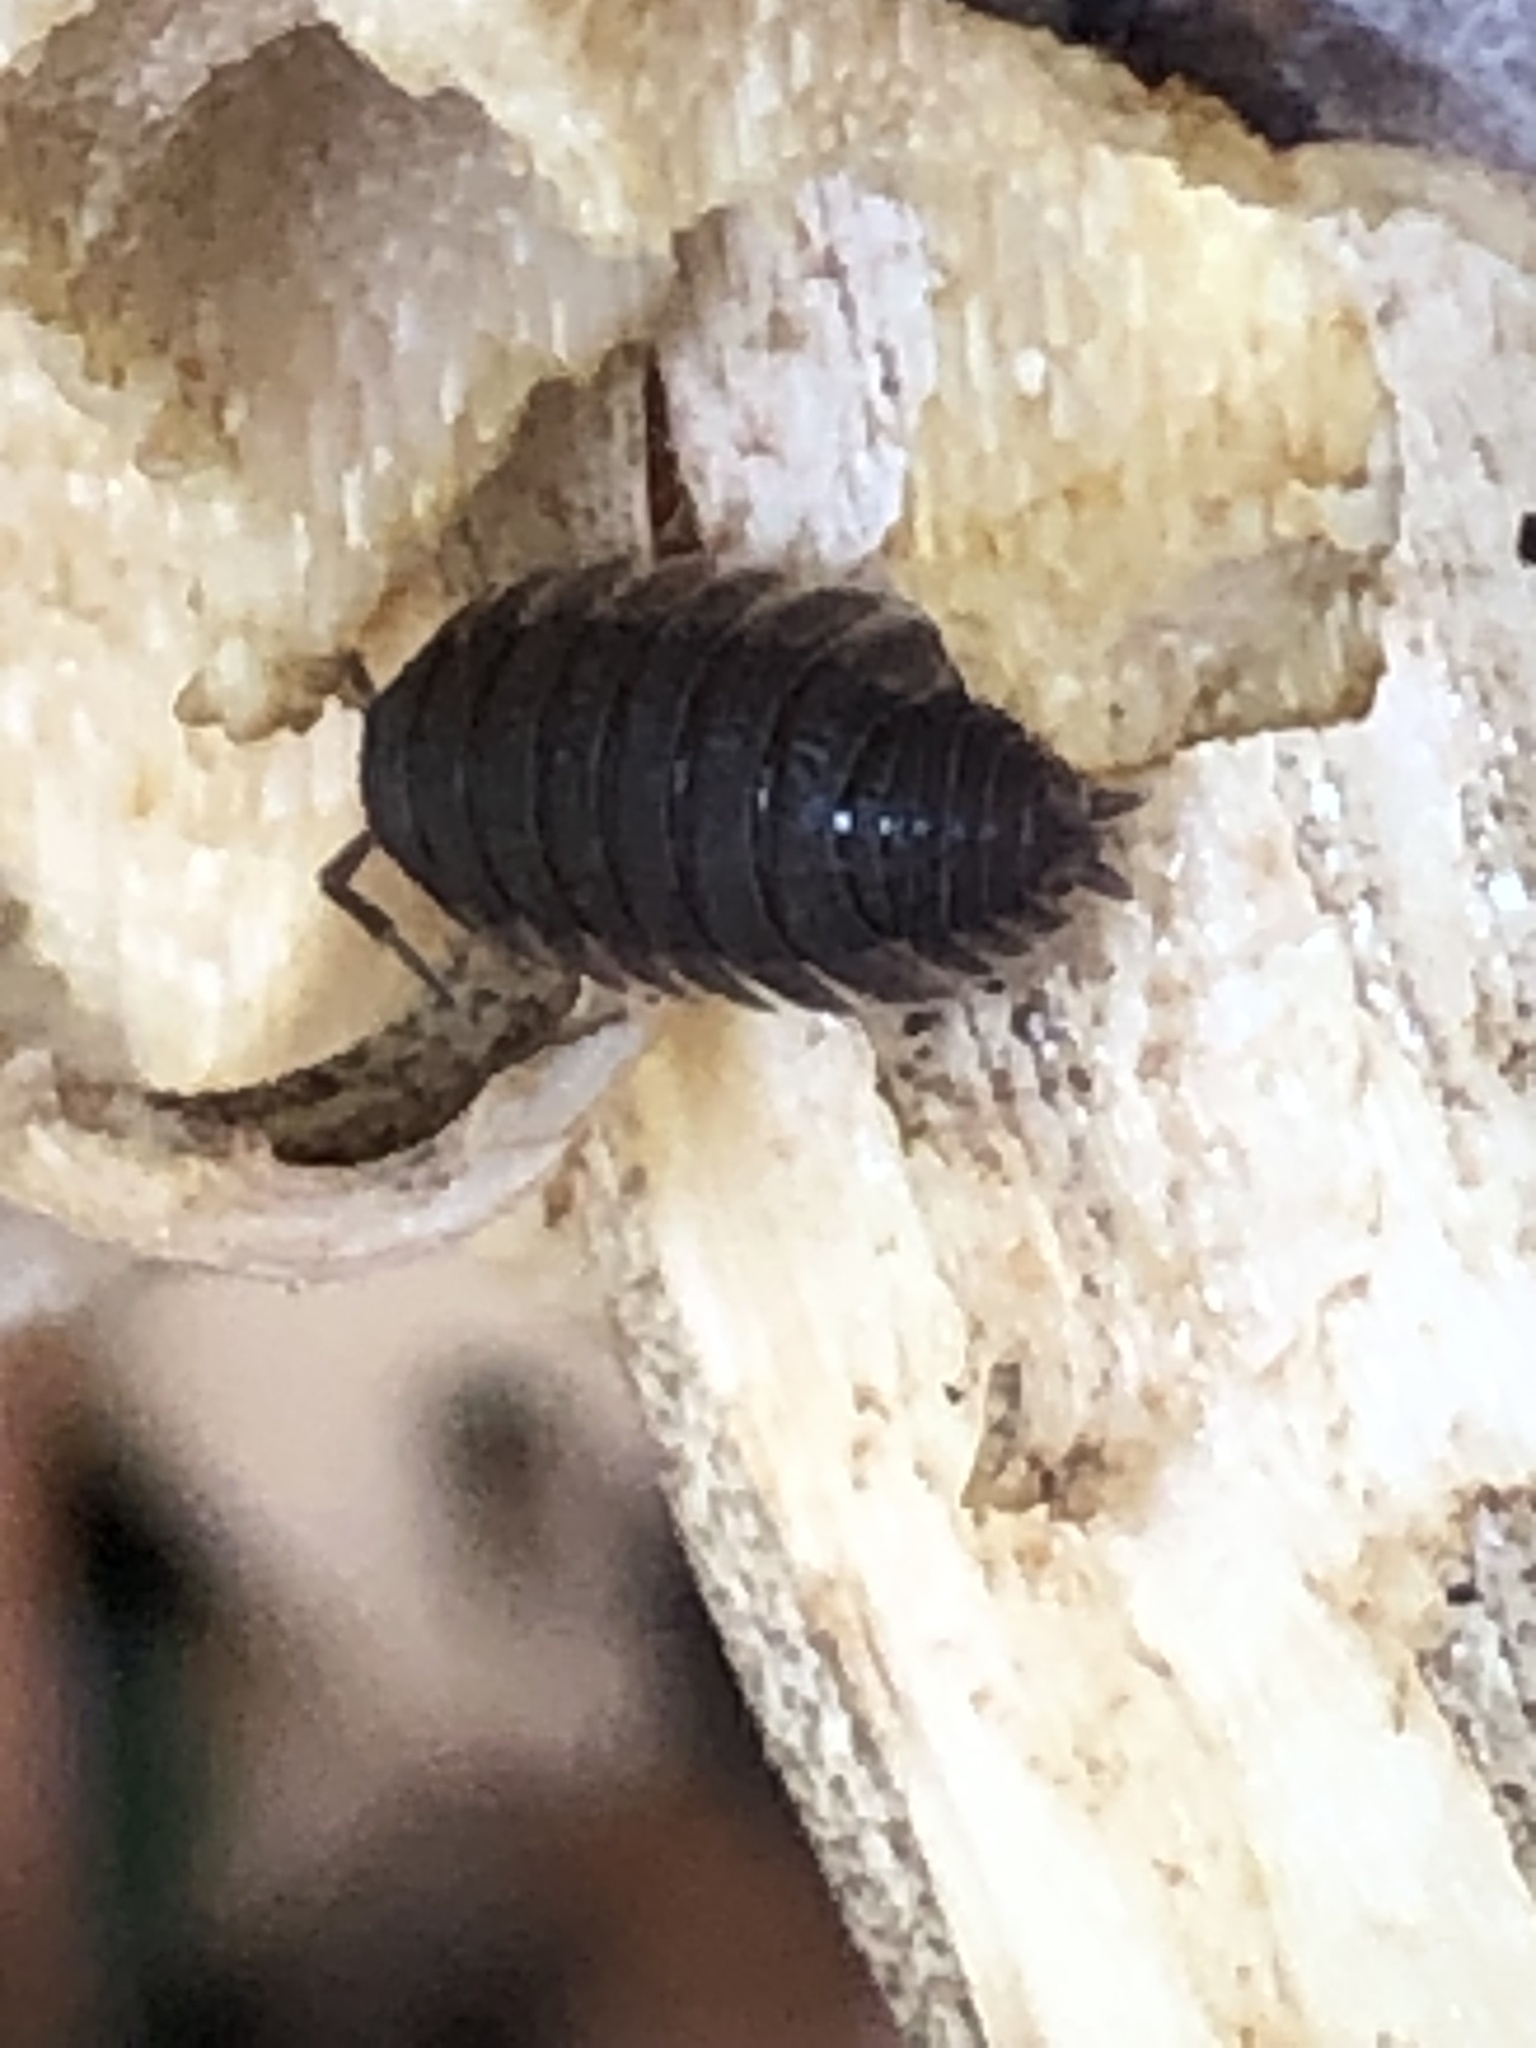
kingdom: Animalia
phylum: Arthropoda
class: Malacostraca
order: Isopoda
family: Porcellionidae
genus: Porcellio
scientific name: Porcellio scaber
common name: Common rough woodlouse
